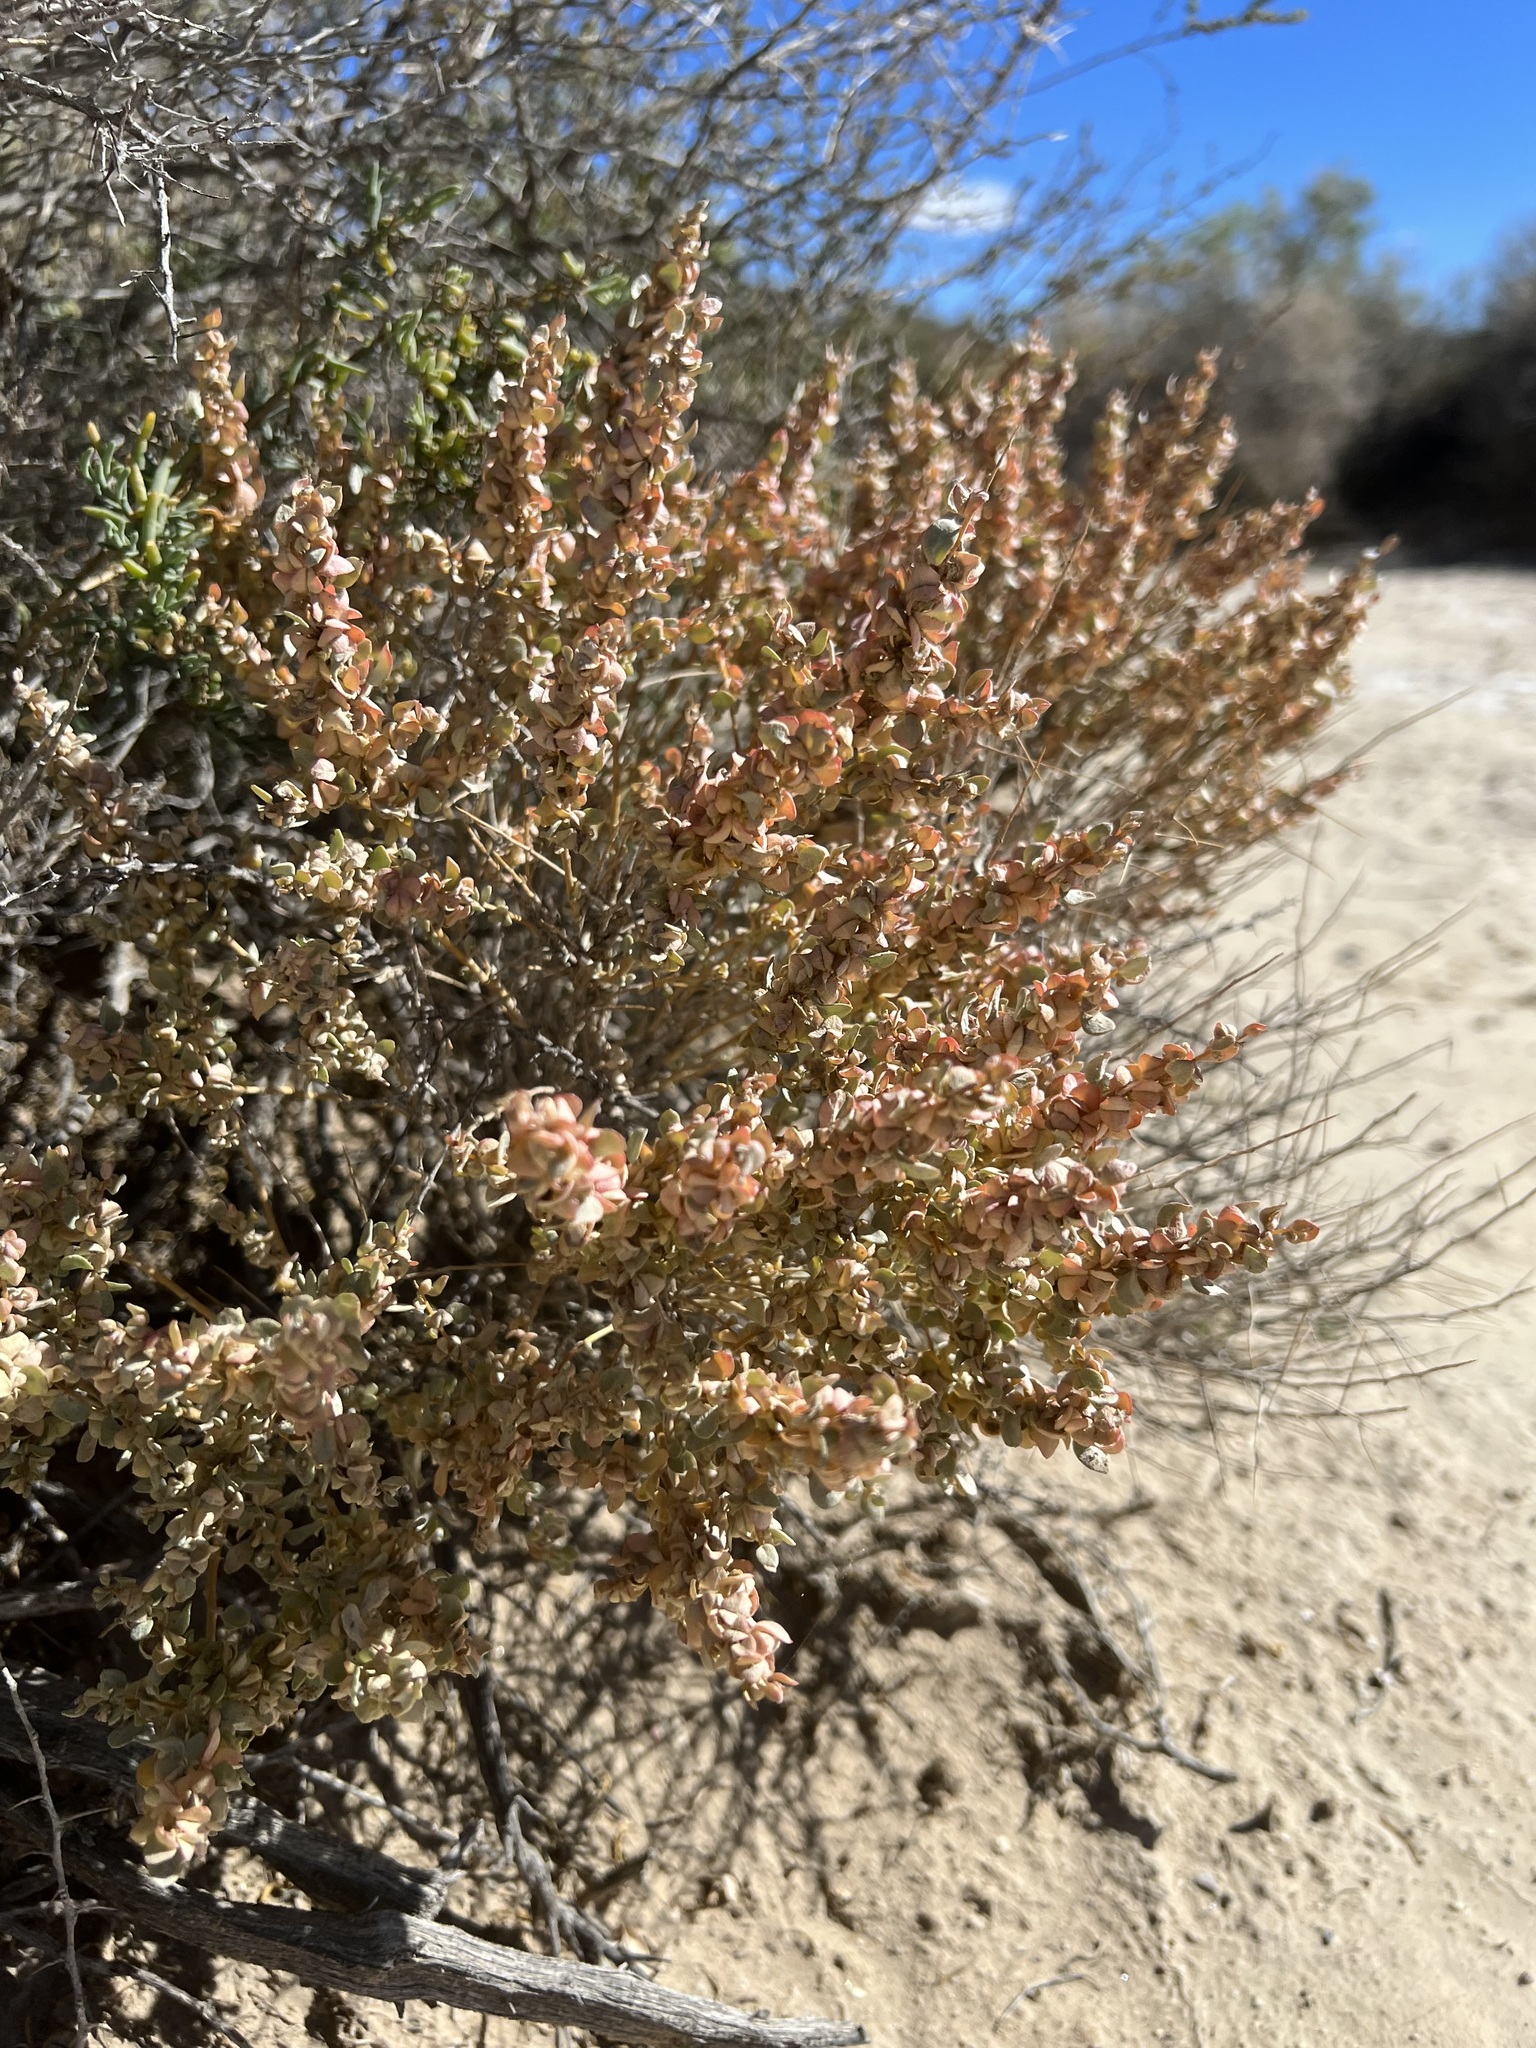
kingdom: Plantae
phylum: Tracheophyta
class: Magnoliopsida
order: Caryophyllales
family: Amaranthaceae
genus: Atriplex
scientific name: Atriplex confertifolia
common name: Shadscale
